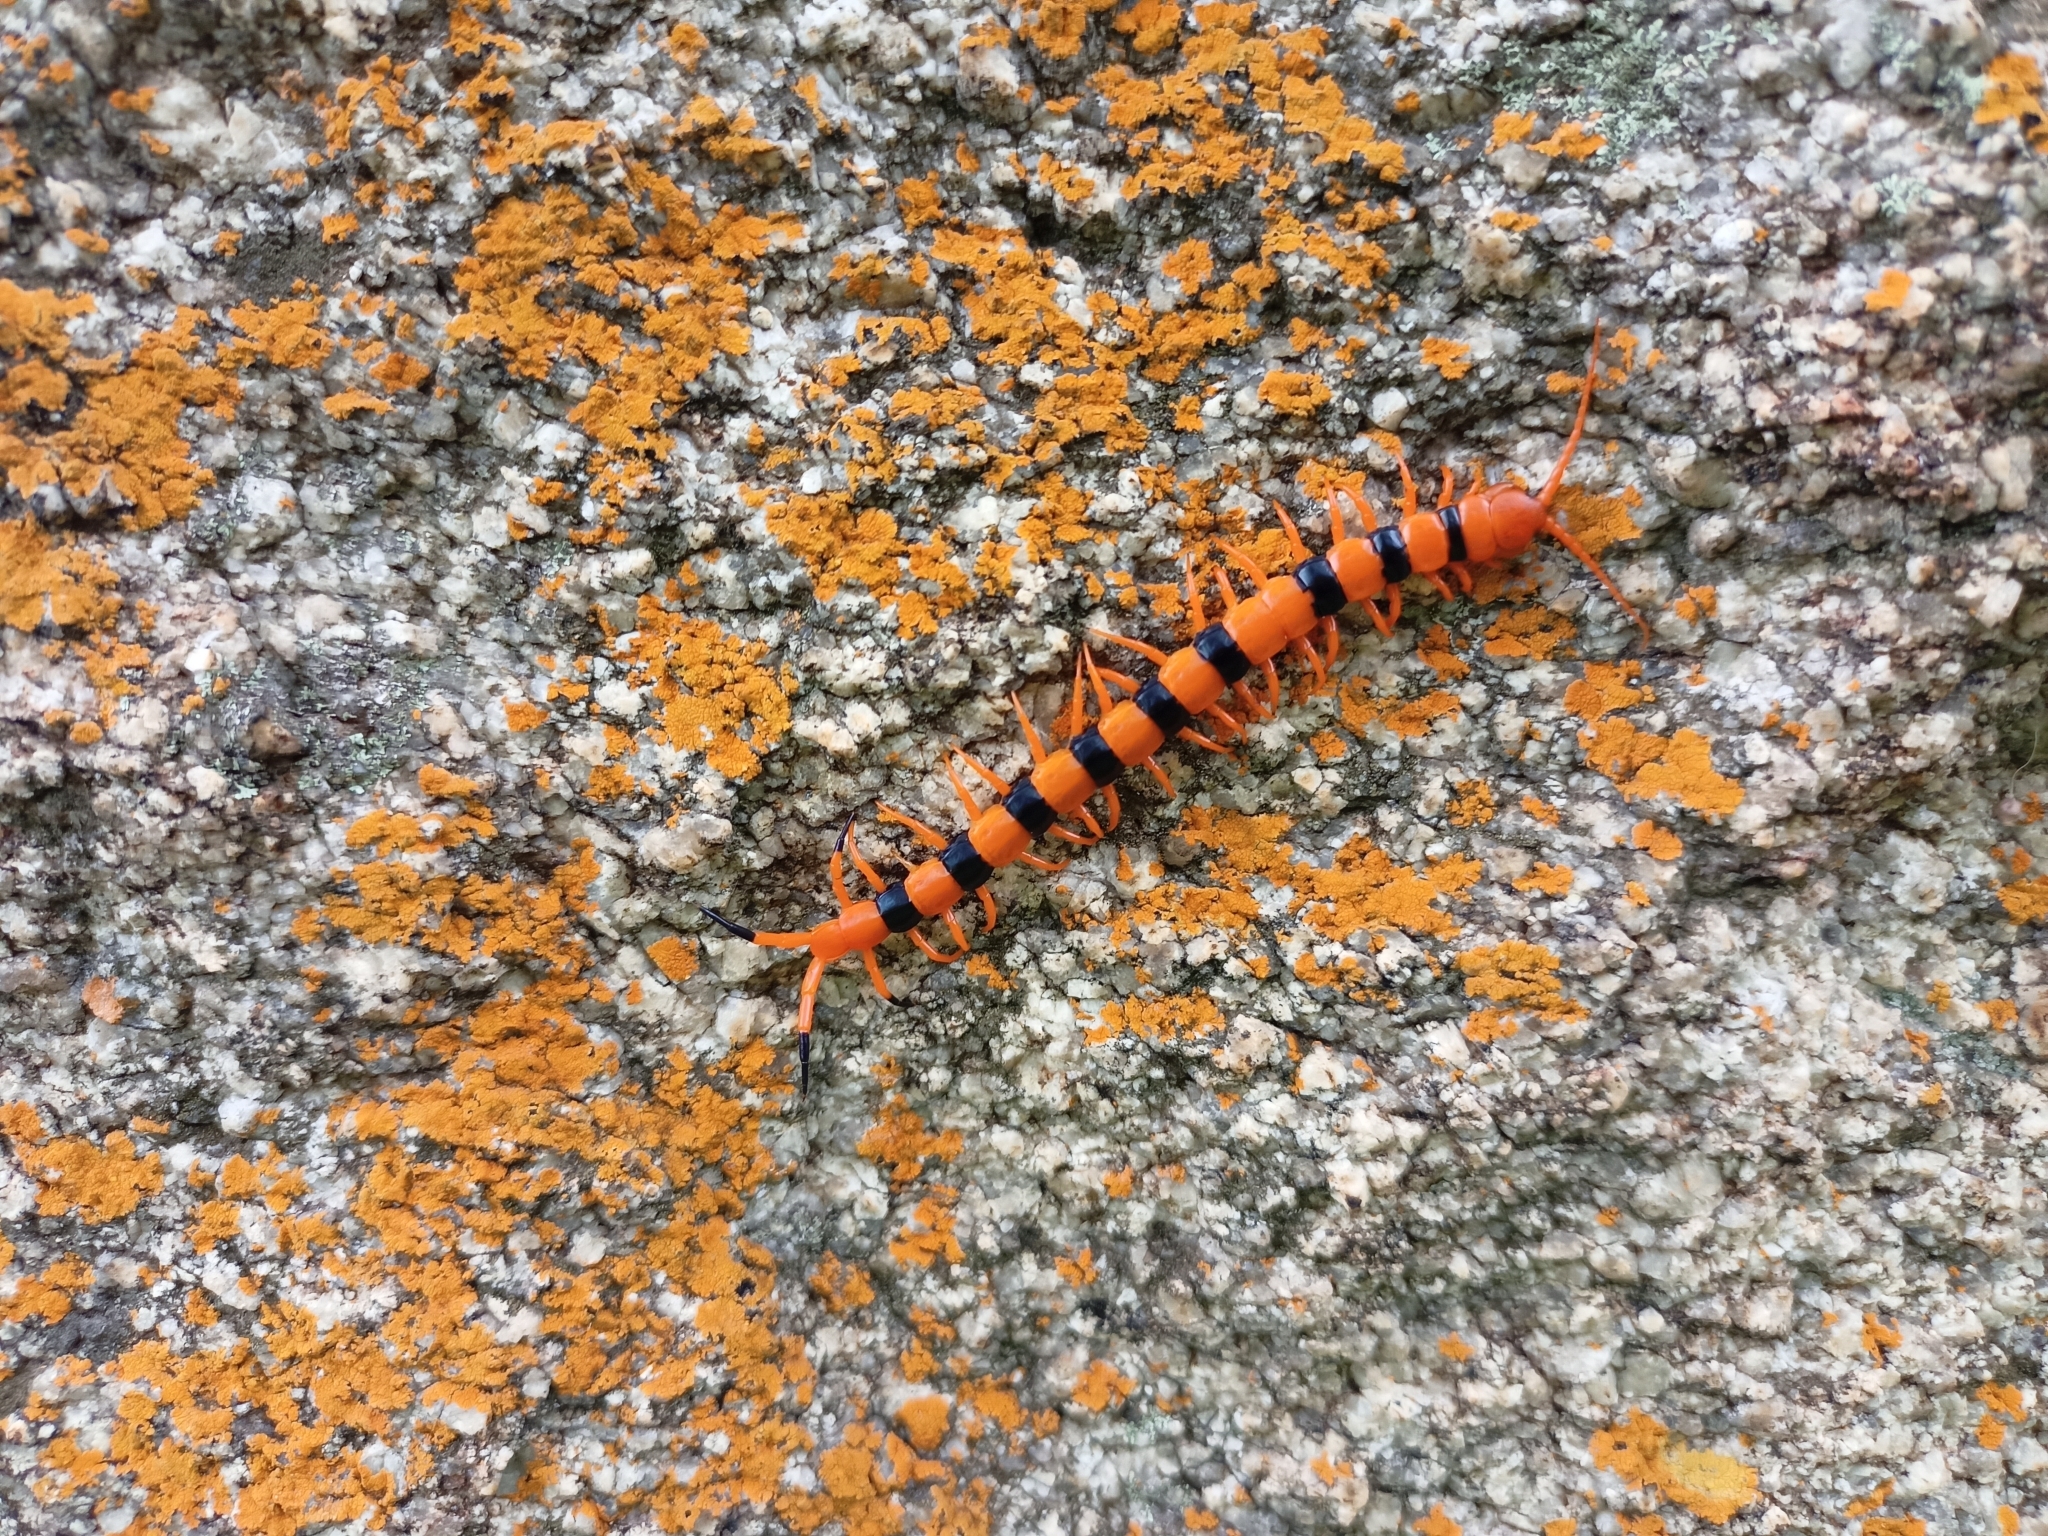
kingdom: Animalia
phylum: Arthropoda
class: Chilopoda
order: Scolopendromorpha
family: Scolopendridae
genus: Scolopendra
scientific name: Scolopendra hardwickei
